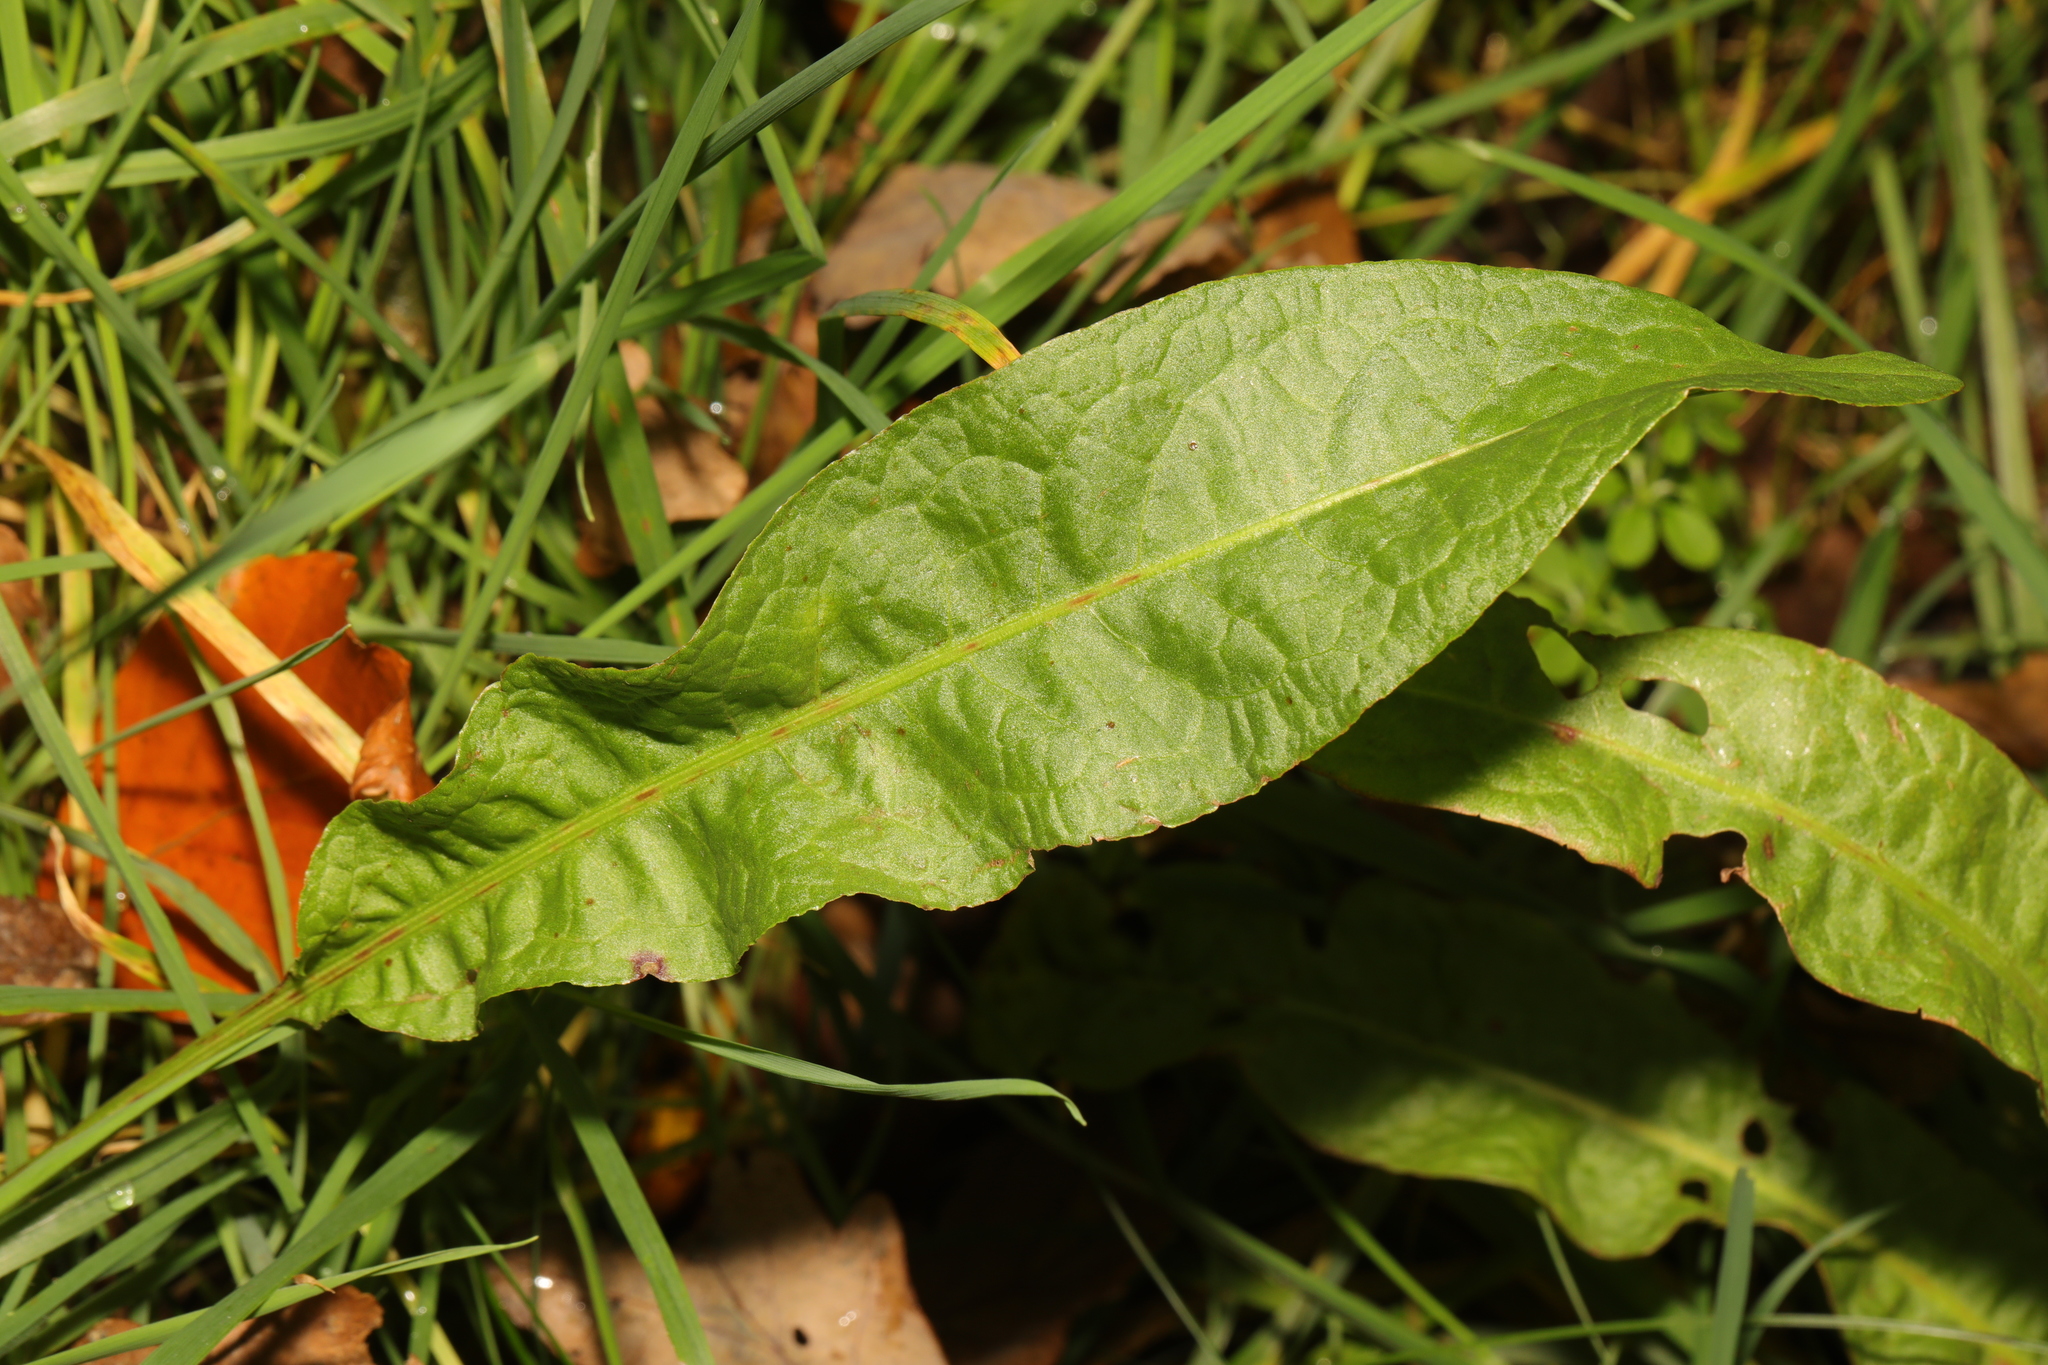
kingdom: Plantae
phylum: Tracheophyta
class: Magnoliopsida
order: Caryophyllales
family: Polygonaceae
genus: Rumex
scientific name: Rumex crispus
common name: Curled dock
